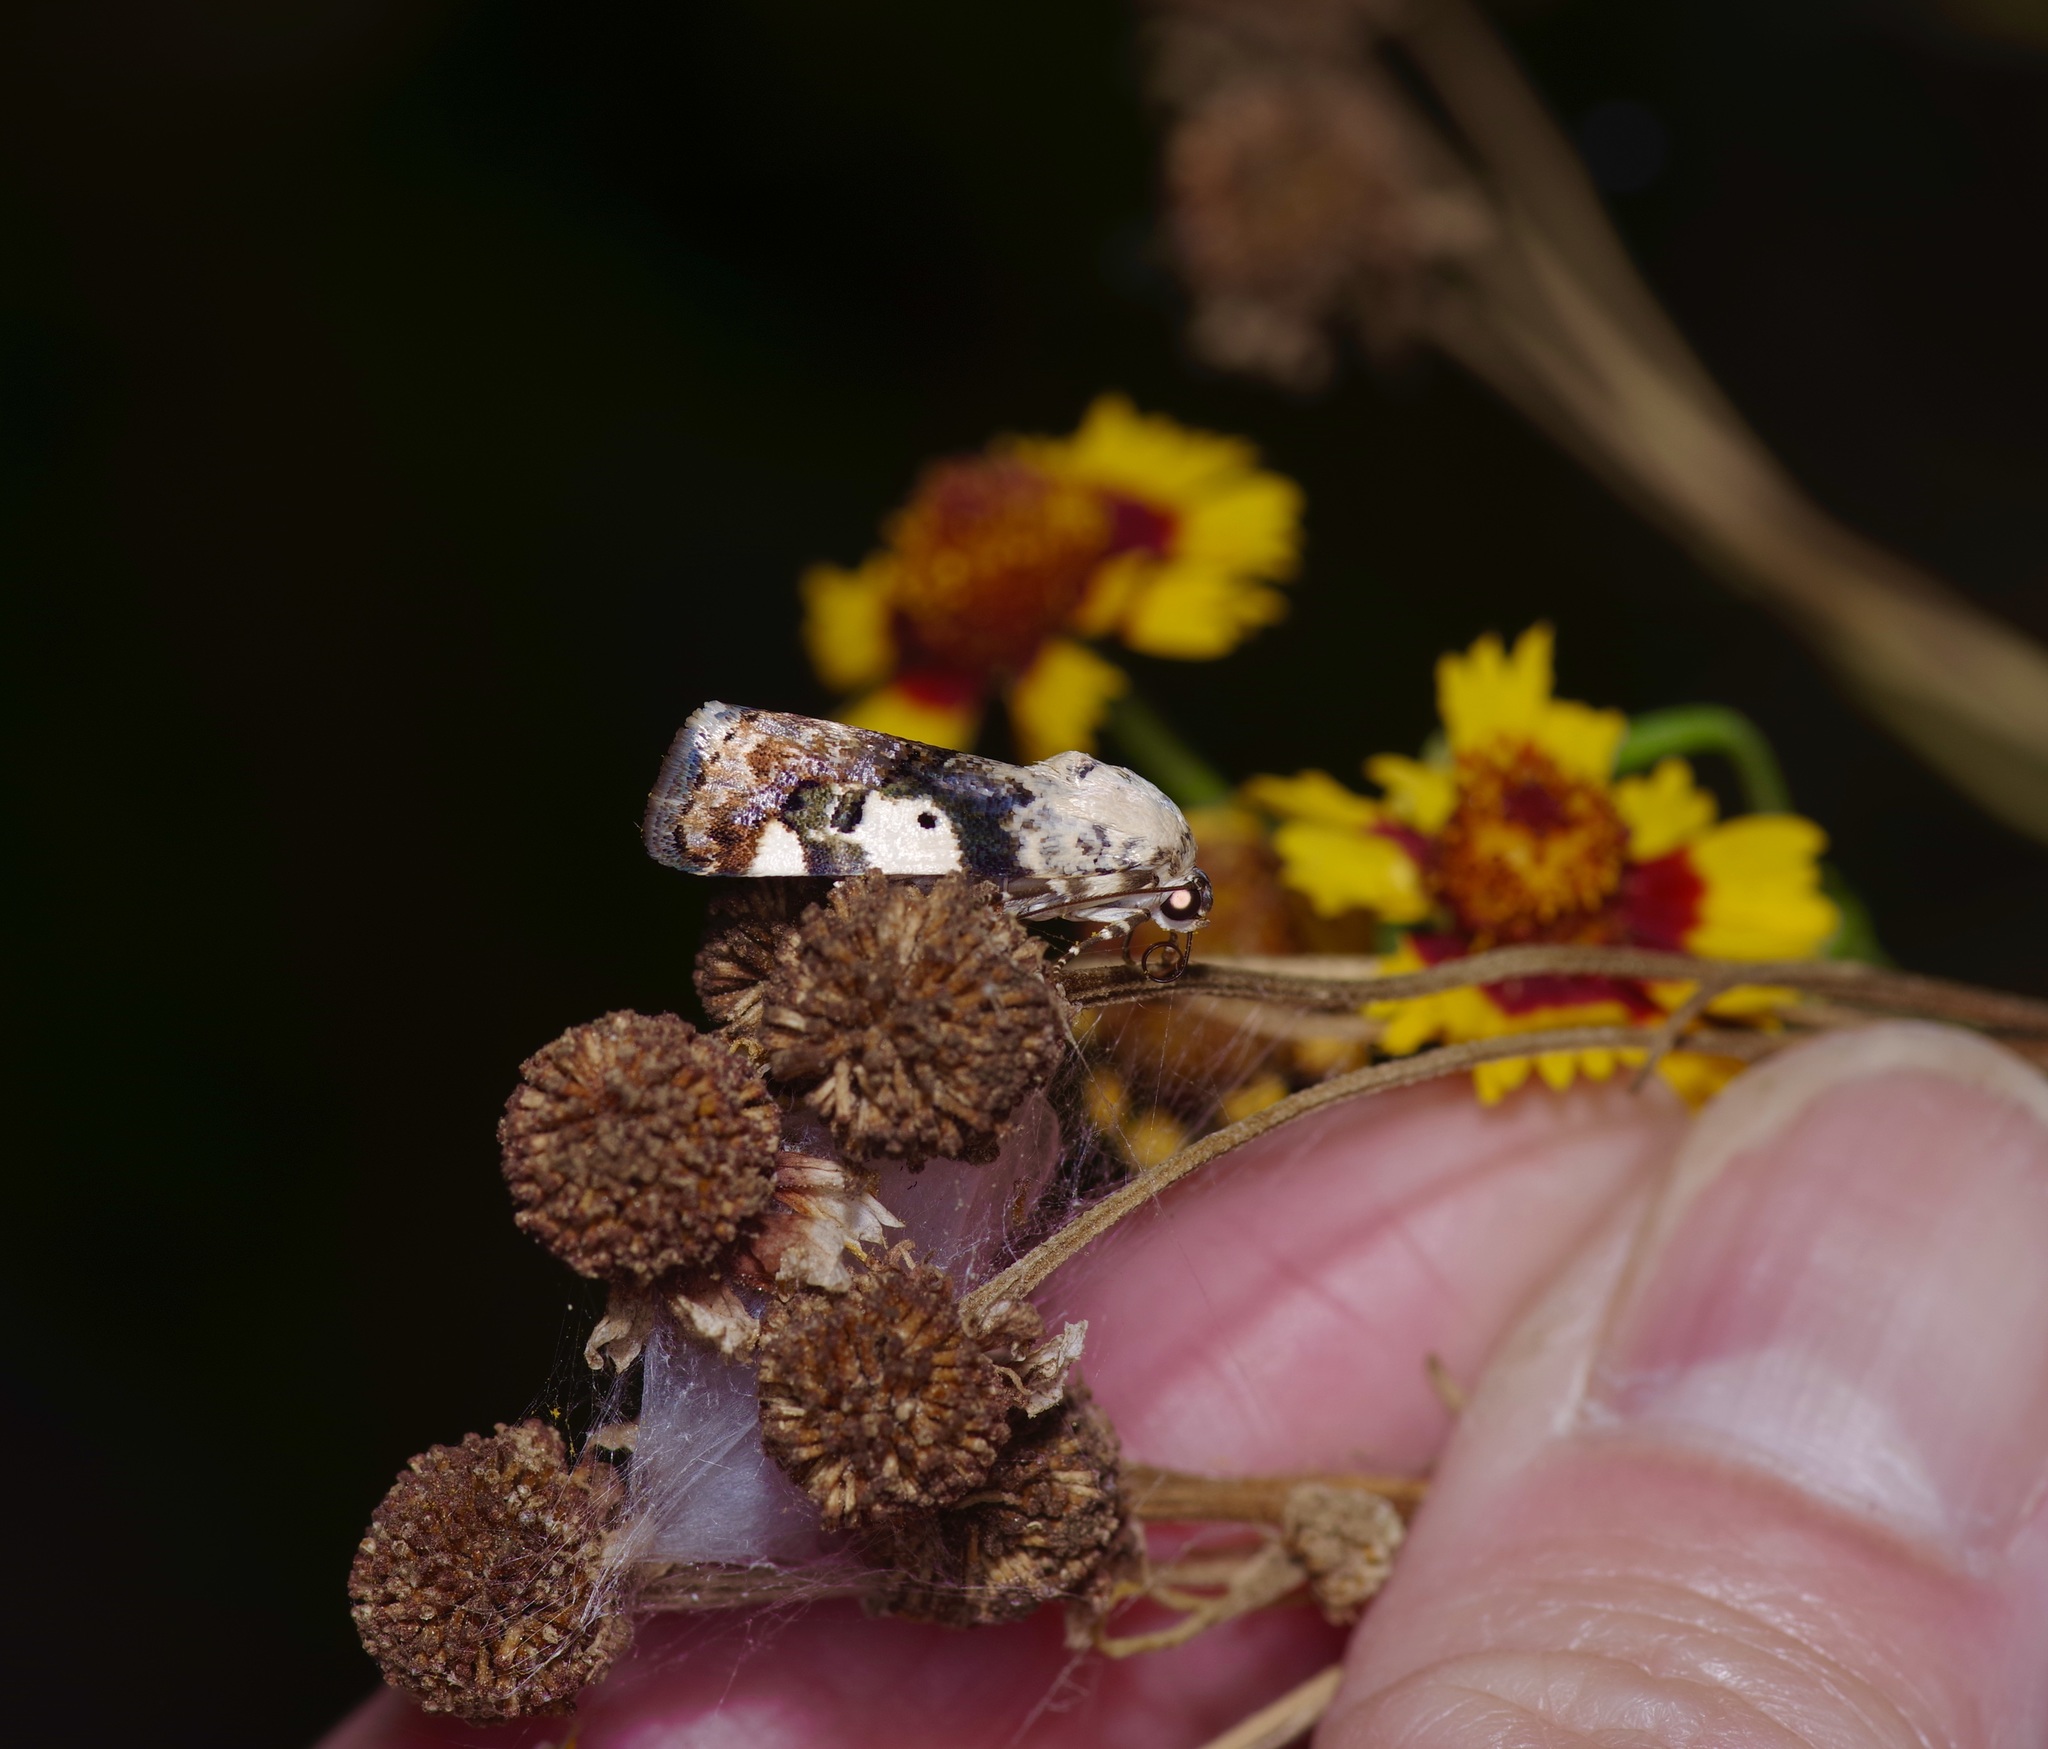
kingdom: Animalia
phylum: Arthropoda
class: Insecta
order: Lepidoptera
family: Noctuidae
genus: Acontia
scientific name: Acontia aprica
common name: Nun
